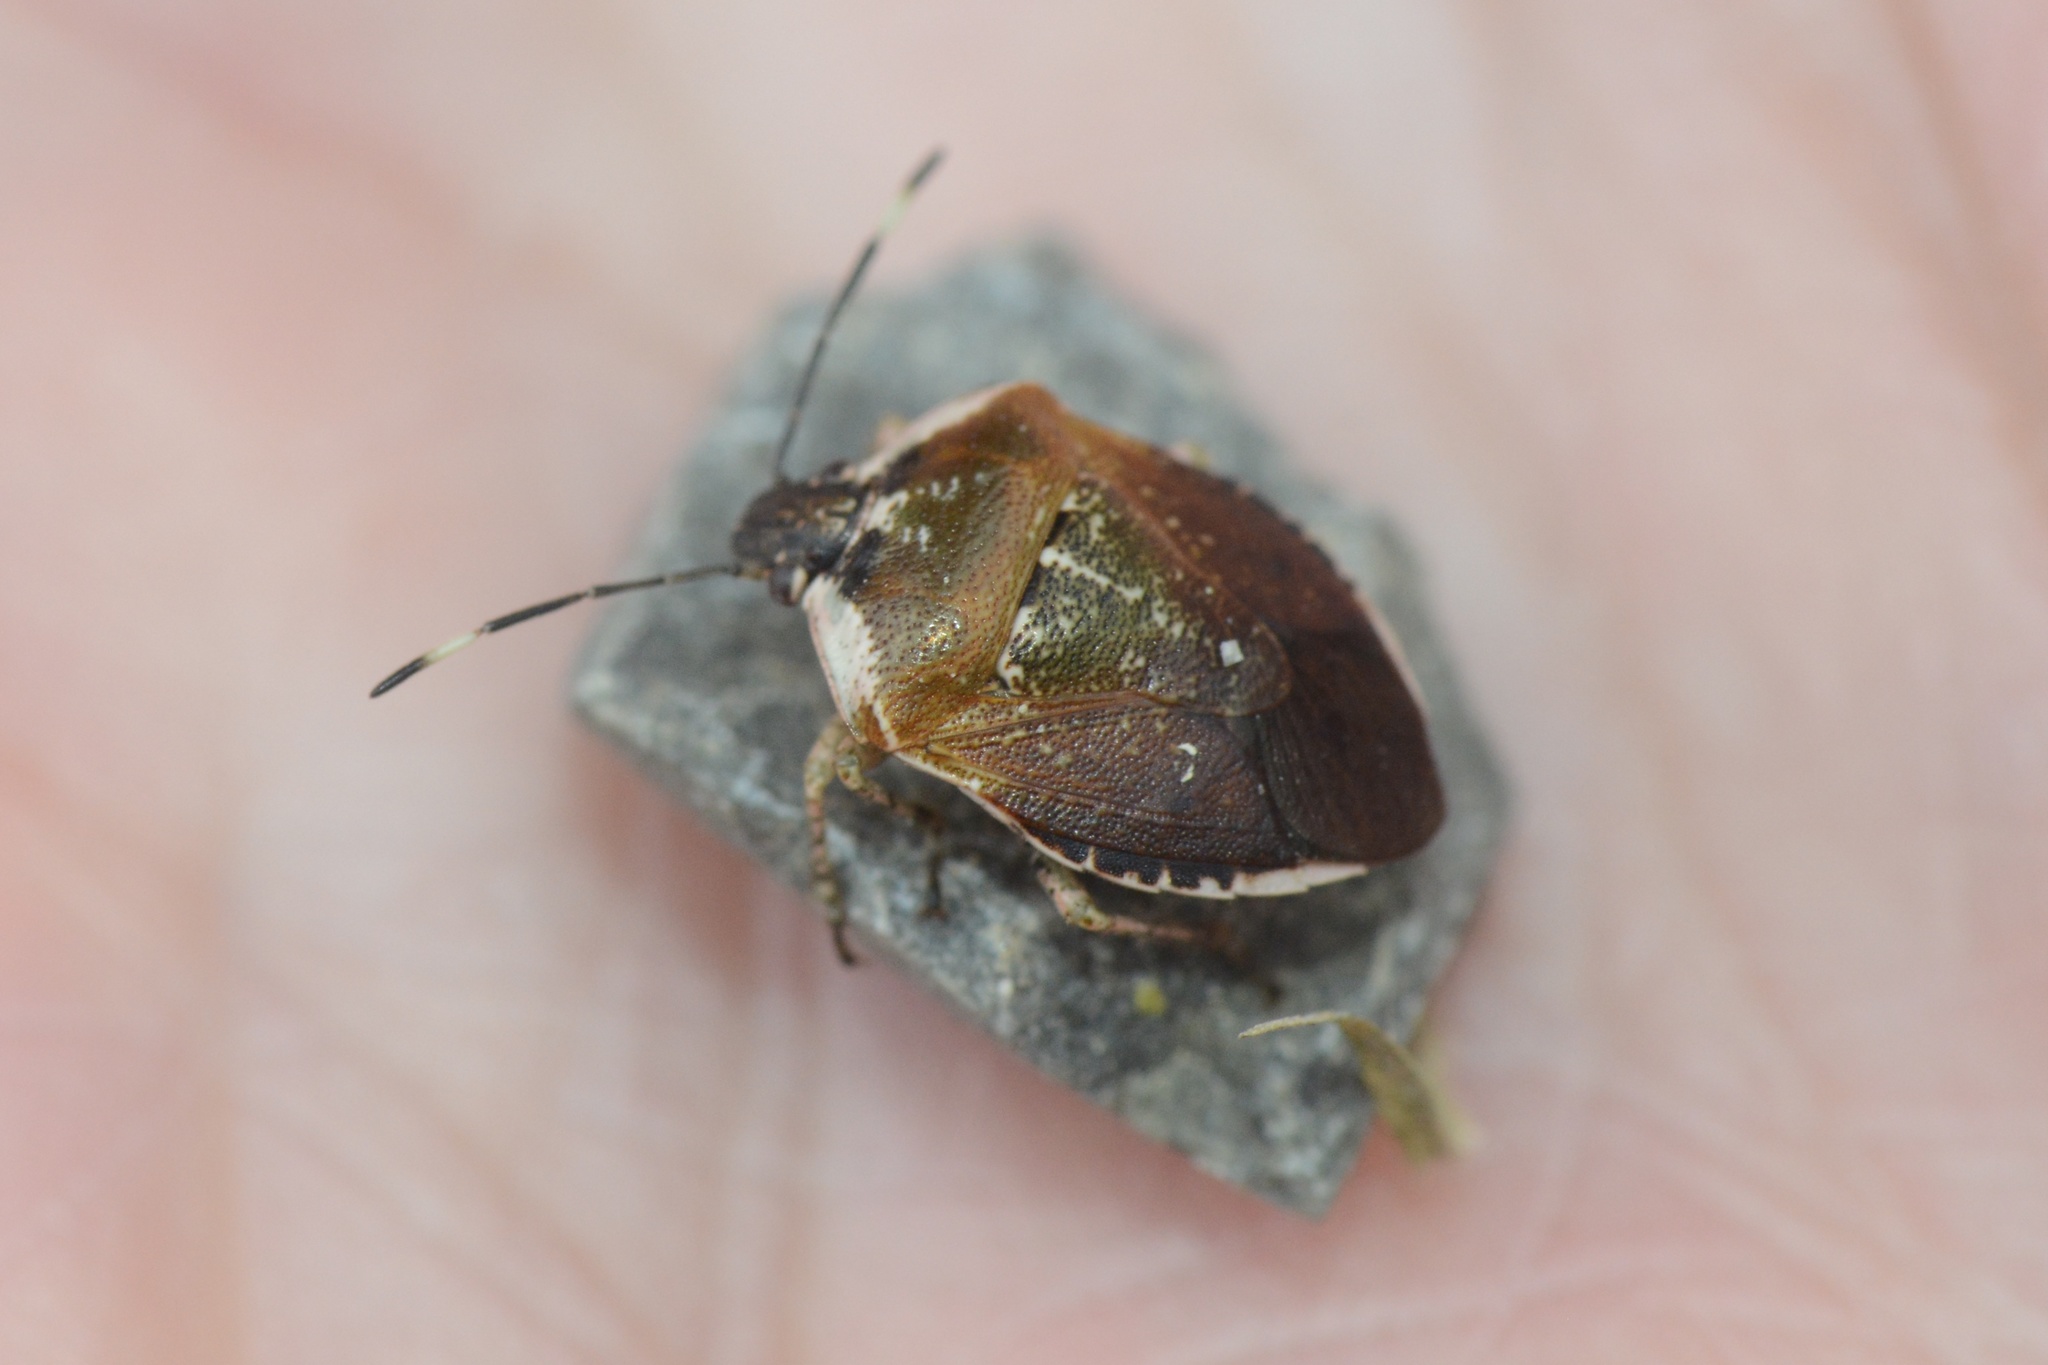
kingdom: Animalia
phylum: Arthropoda
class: Insecta
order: Hemiptera
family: Pentatomidae
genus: Monteithiella
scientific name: Monteithiella
